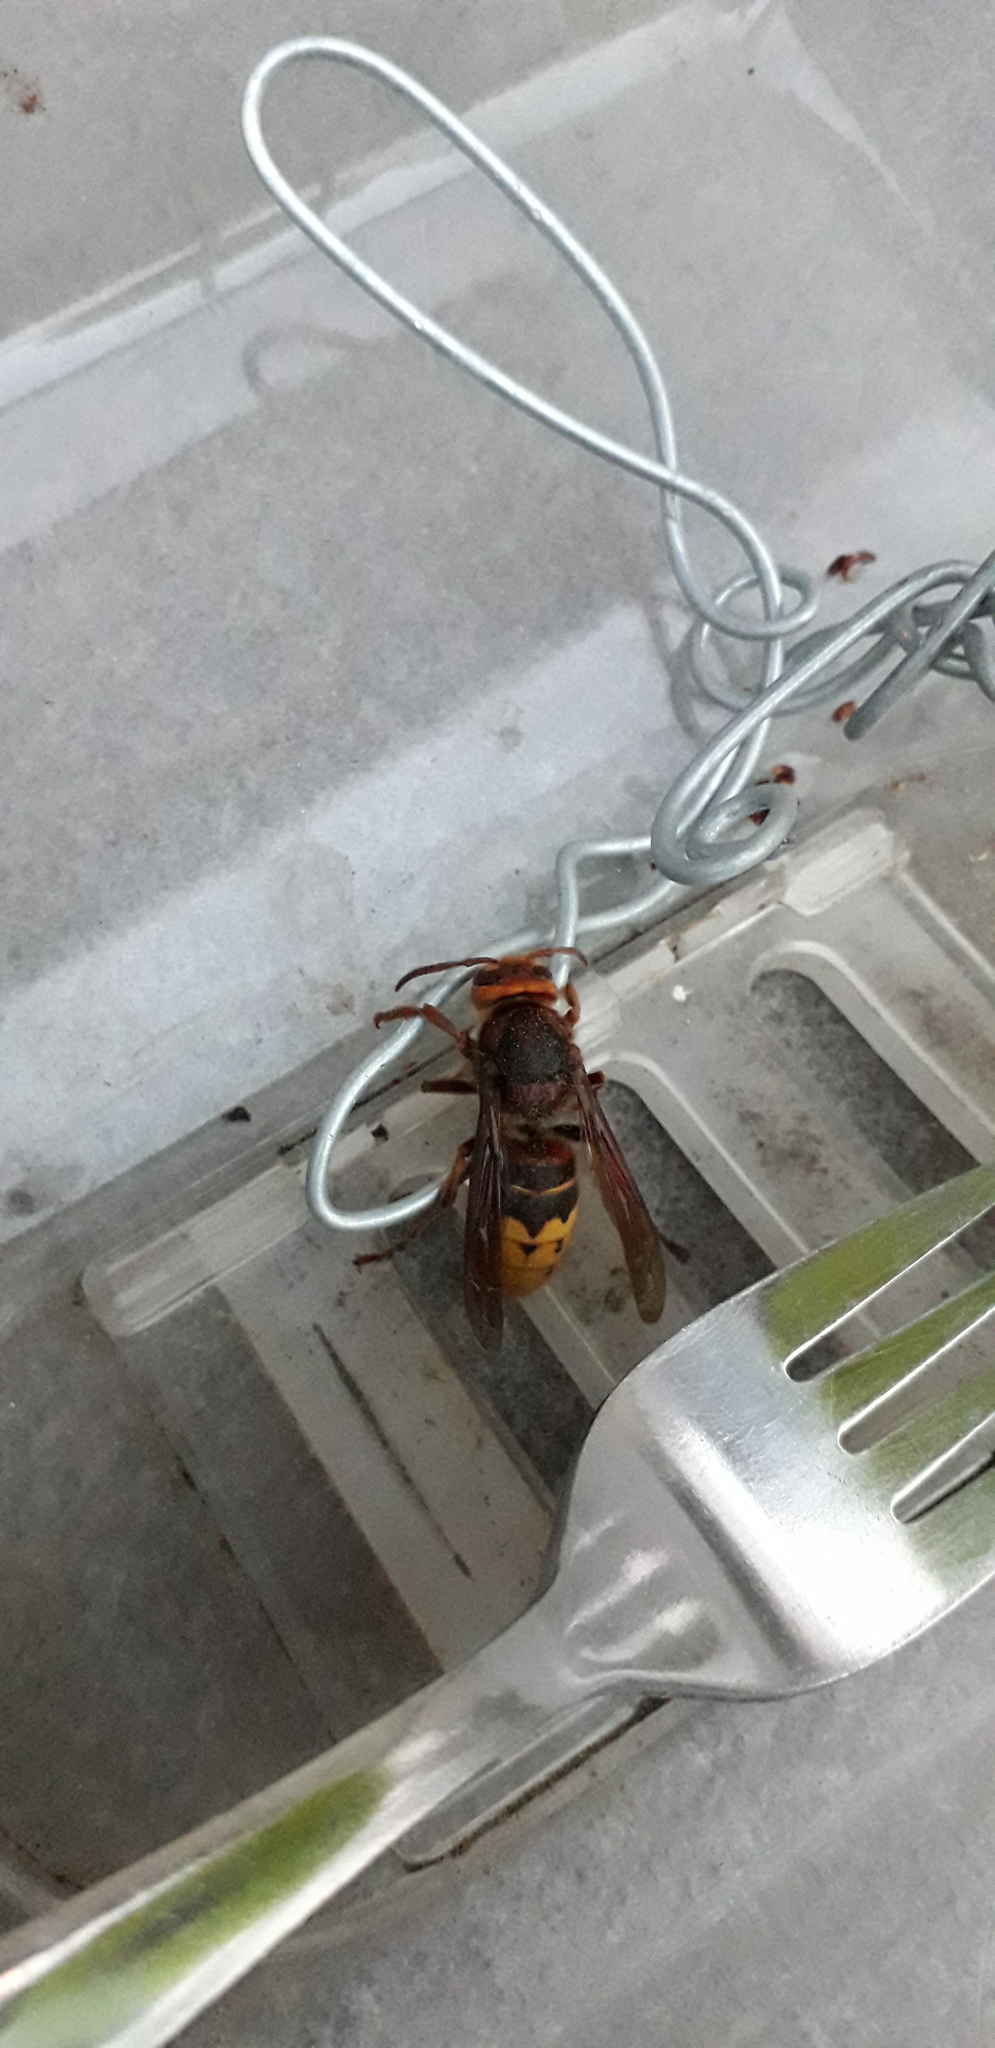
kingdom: Animalia
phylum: Arthropoda
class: Insecta
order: Hymenoptera
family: Vespidae
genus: Vespa
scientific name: Vespa crabro
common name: Hornet
